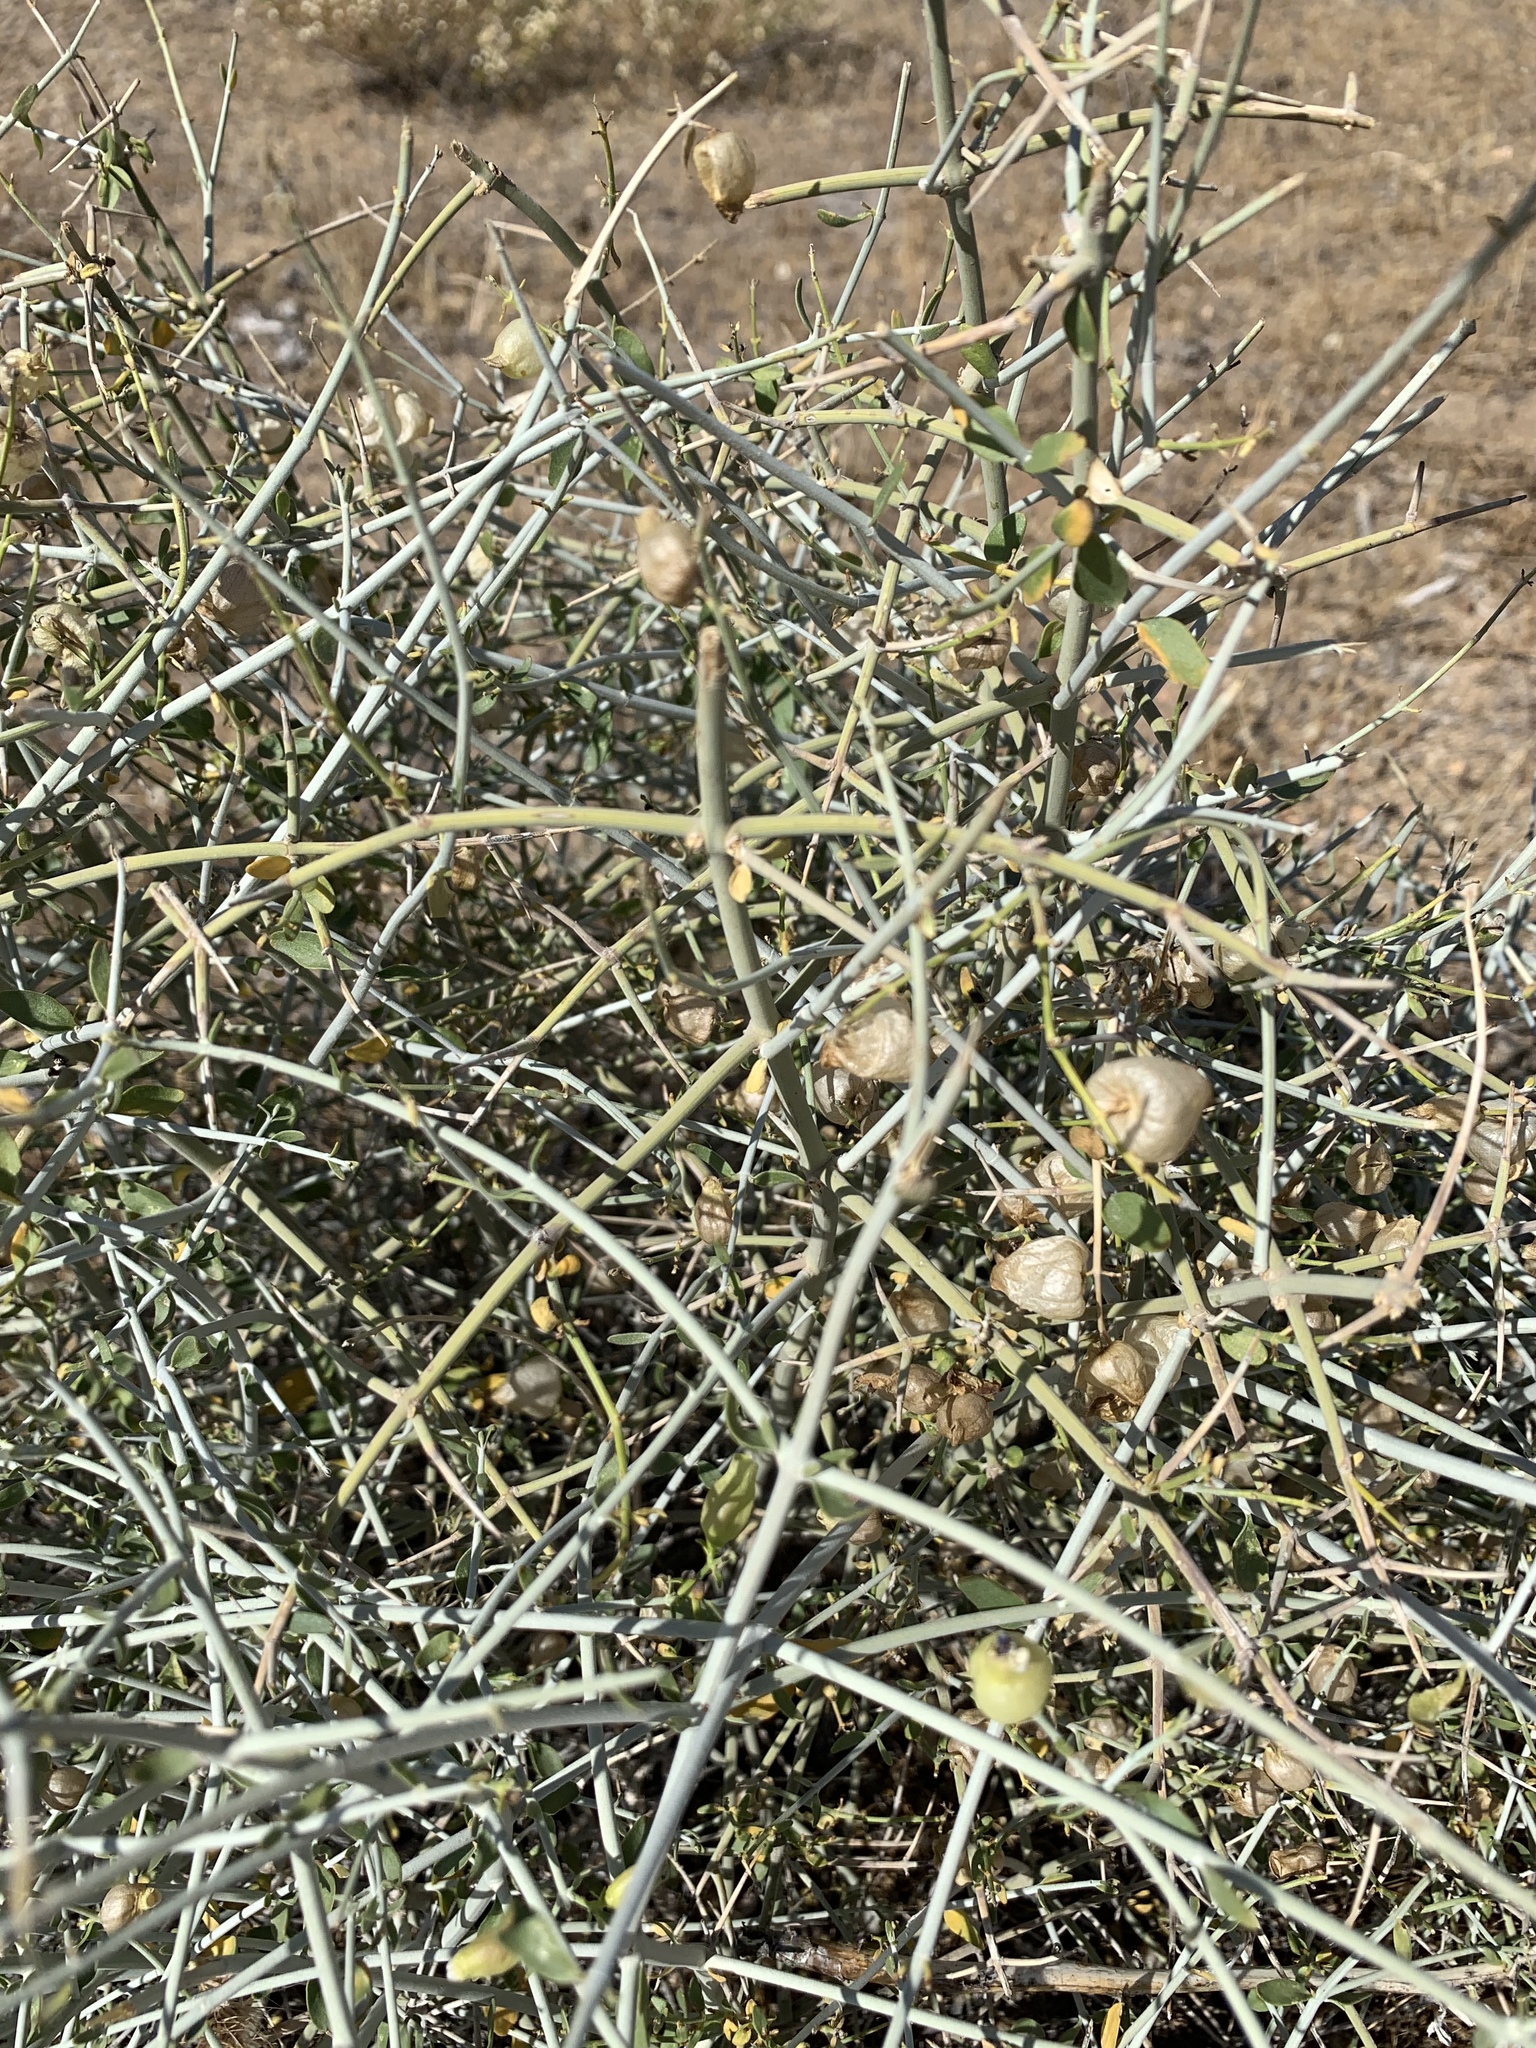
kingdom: Plantae
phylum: Tracheophyta
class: Magnoliopsida
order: Lamiales
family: Lamiaceae
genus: Scutellaria
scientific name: Scutellaria mexicana
